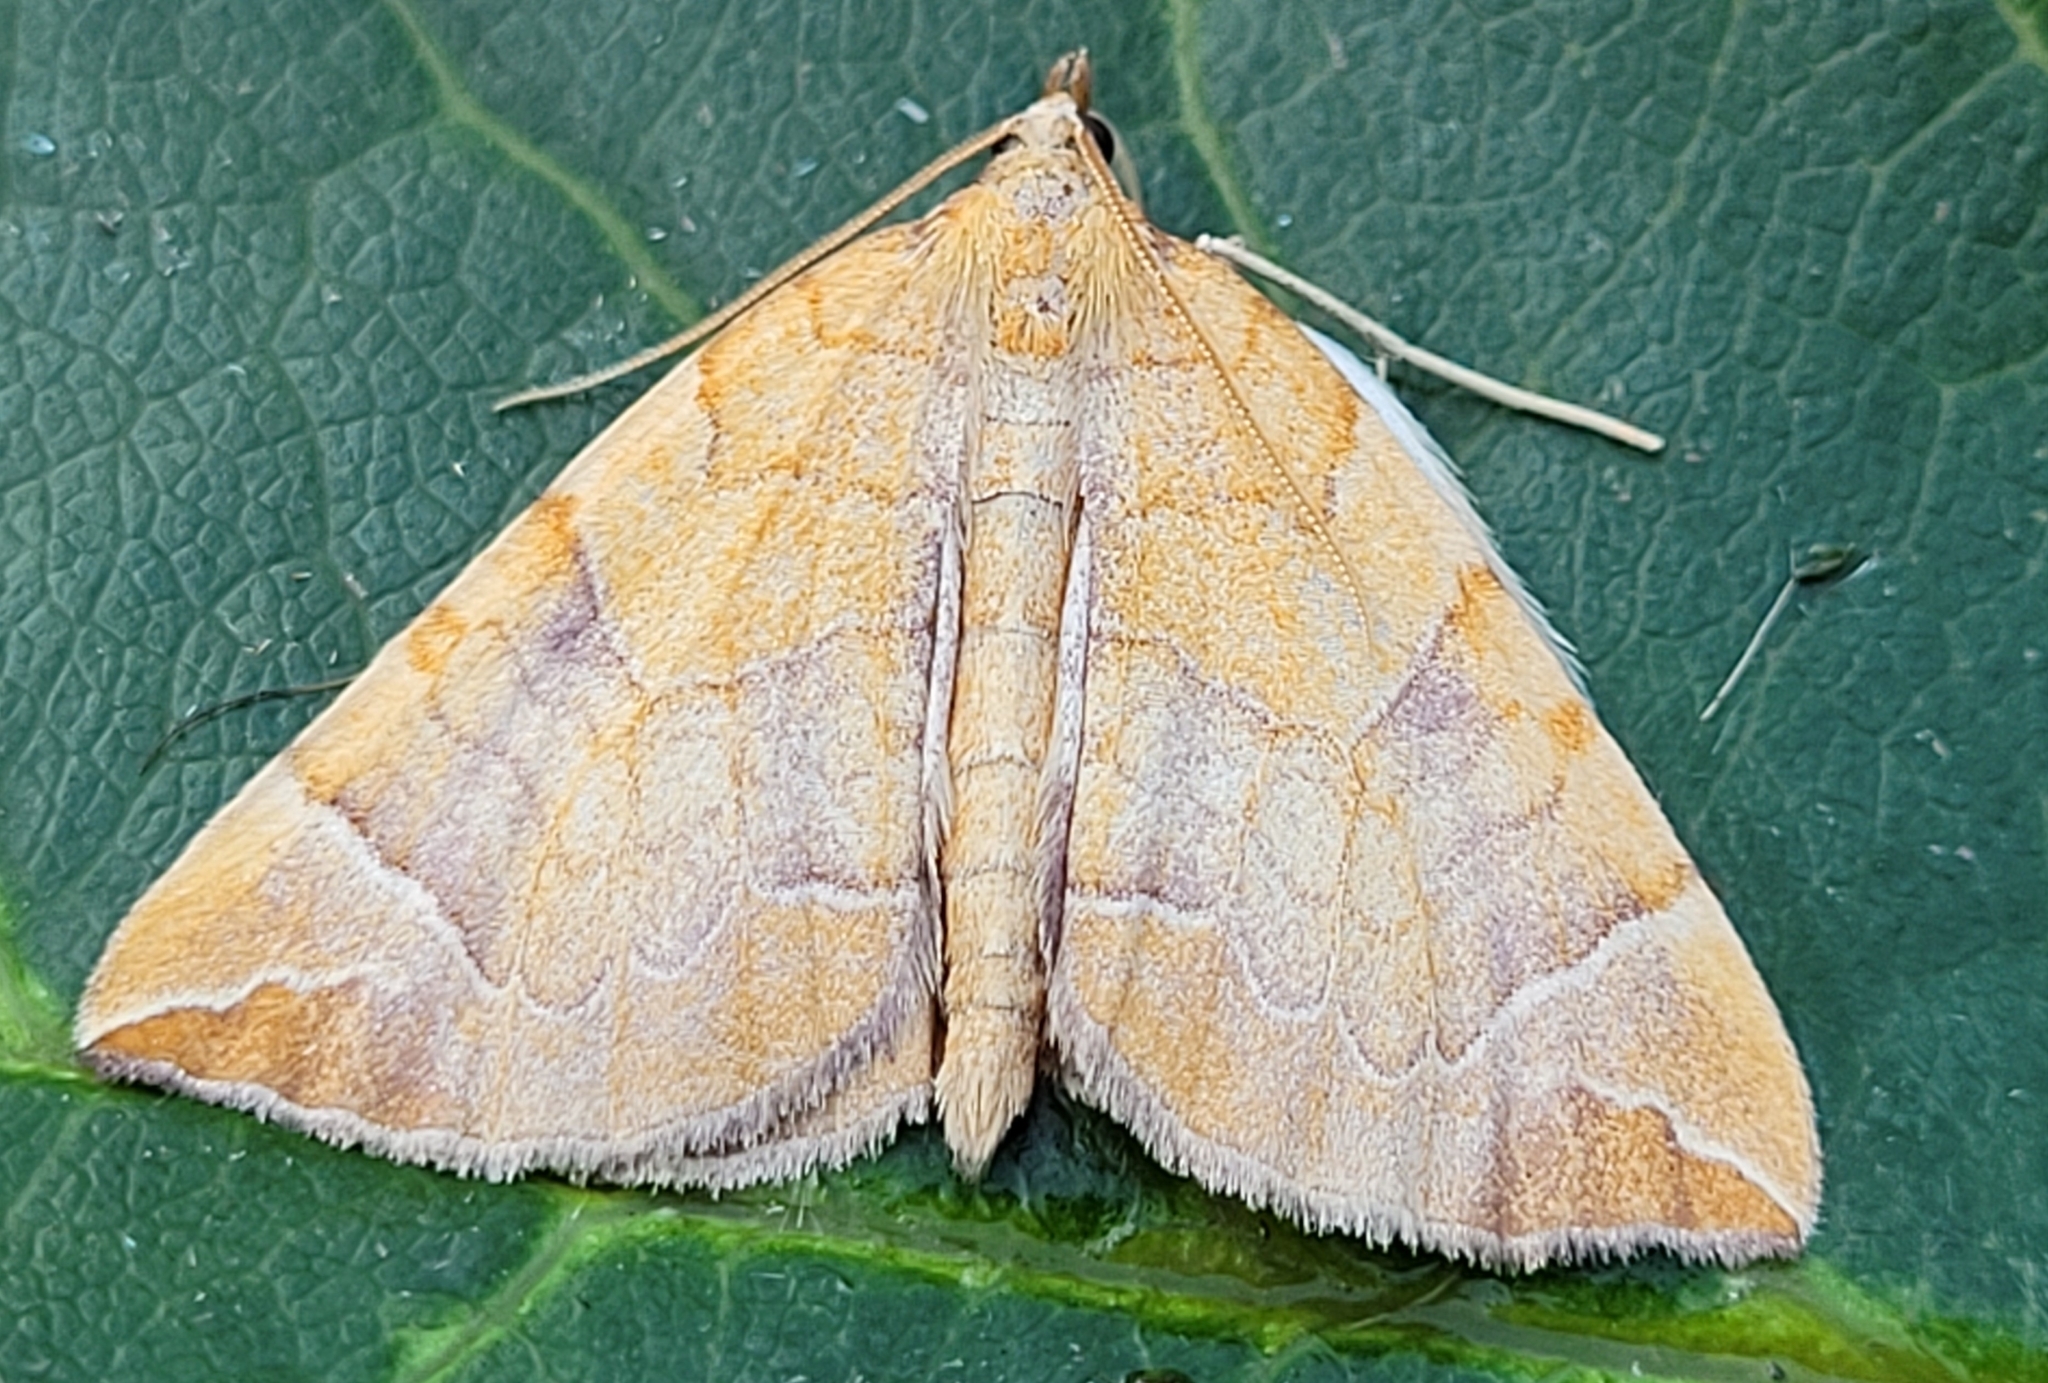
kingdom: Animalia
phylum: Arthropoda
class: Insecta
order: Lepidoptera
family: Geometridae
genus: Eulithis
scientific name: Eulithis testata
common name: Chevron
